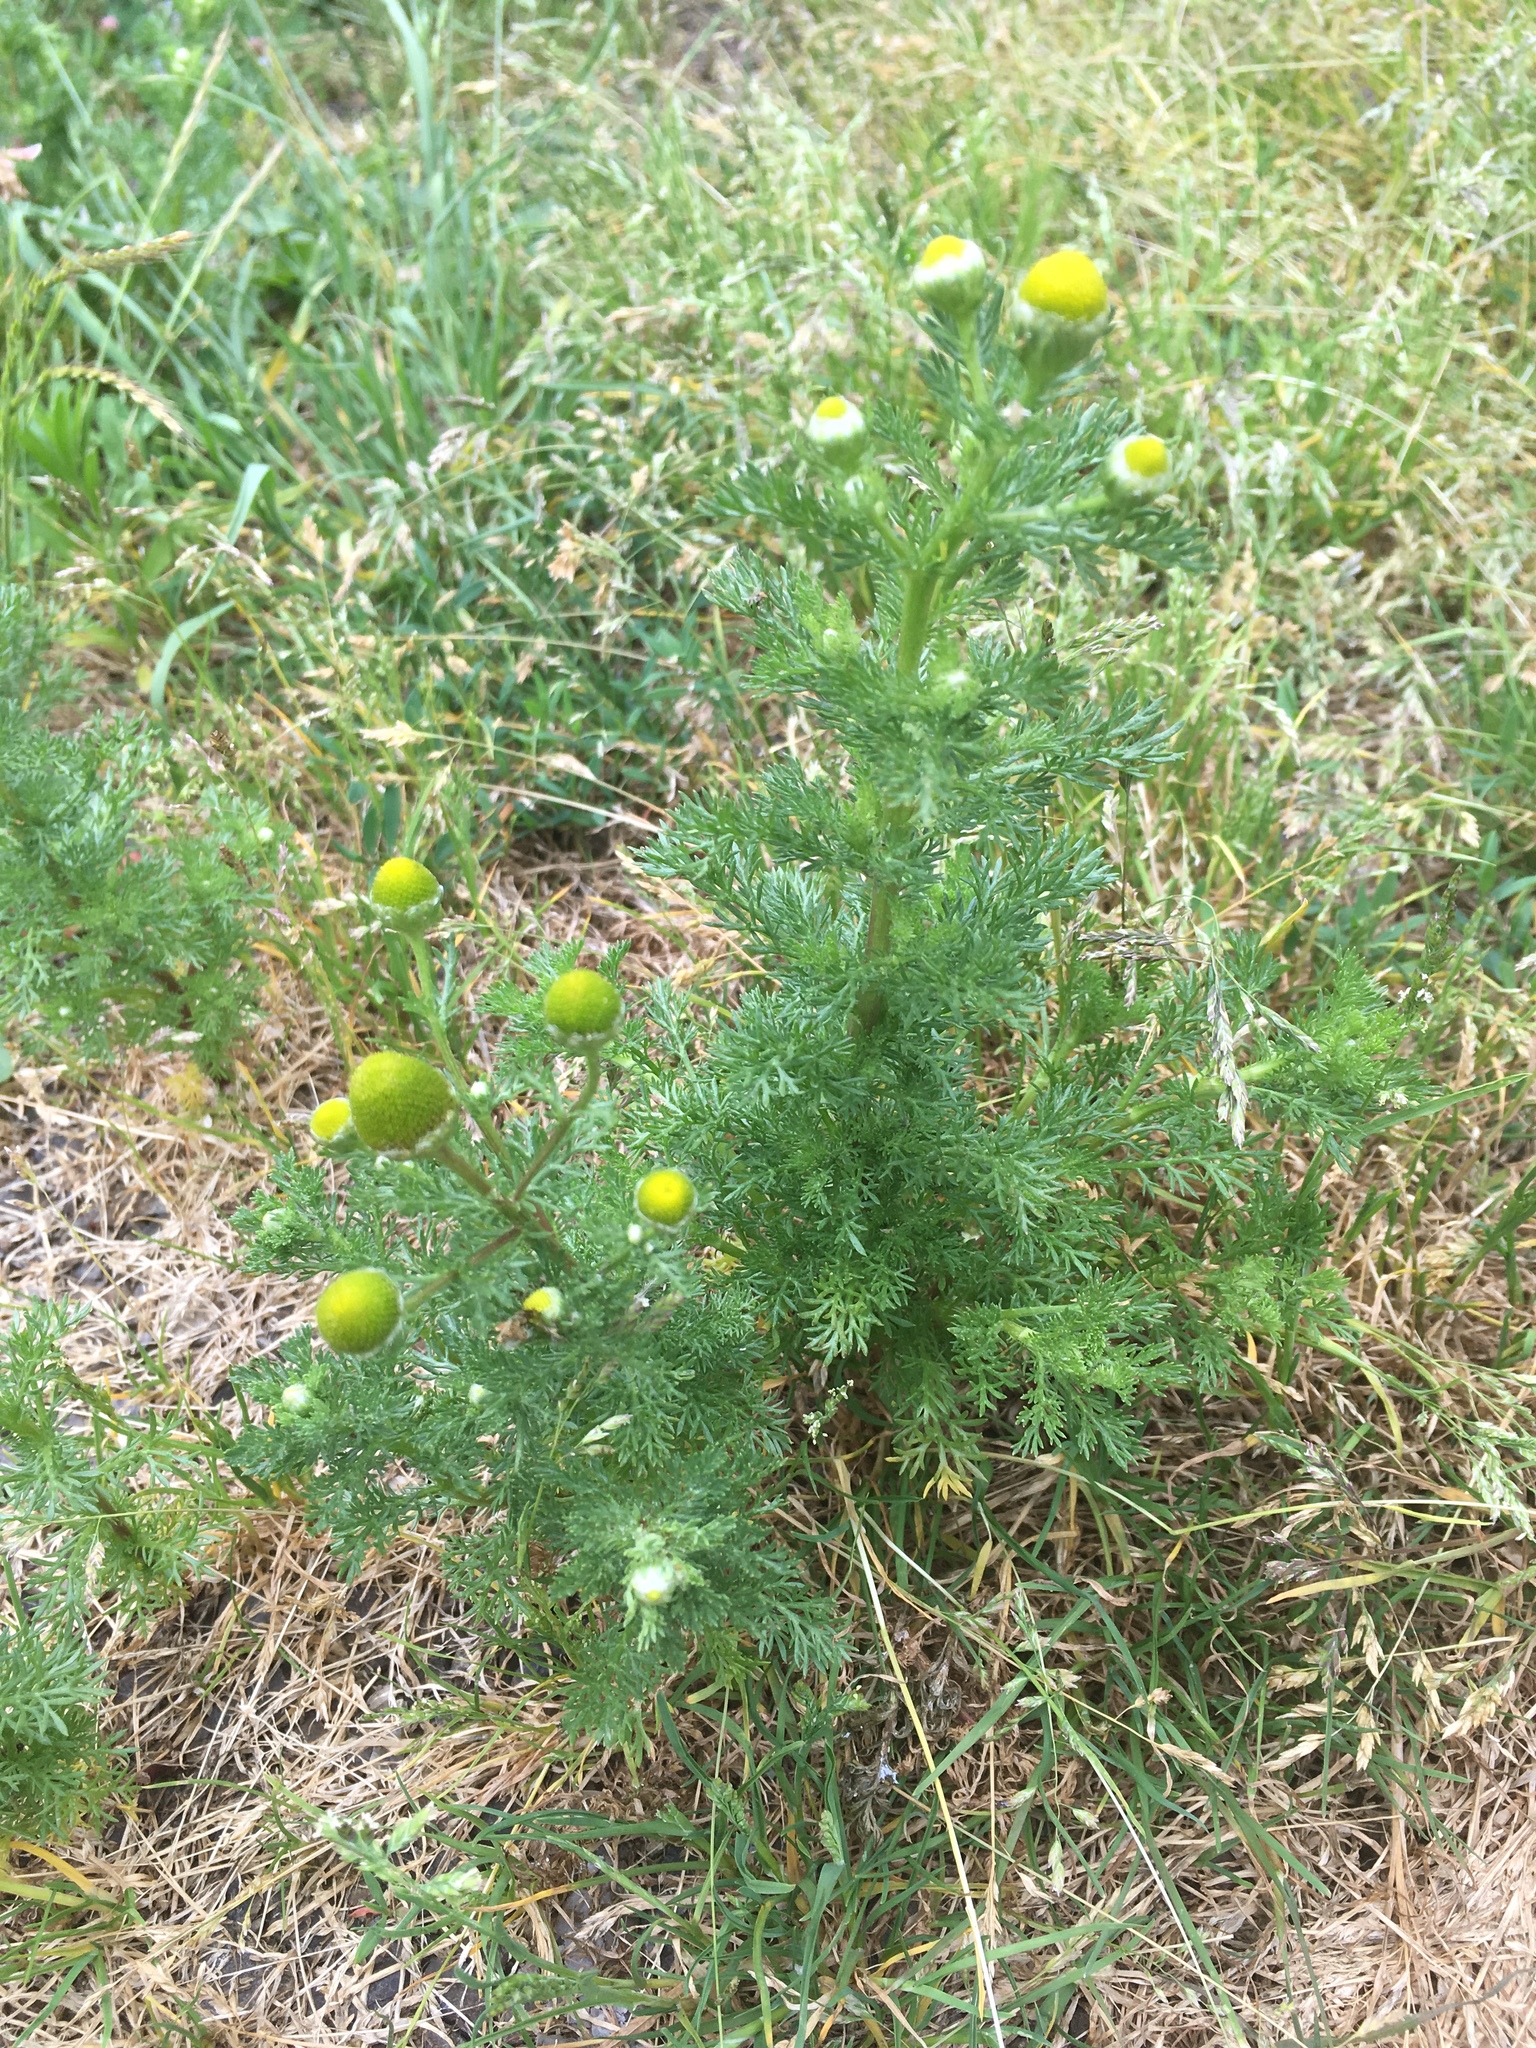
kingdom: Plantae
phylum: Tracheophyta
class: Magnoliopsida
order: Asterales
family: Asteraceae
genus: Matricaria
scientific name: Matricaria discoidea
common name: Disc mayweed
